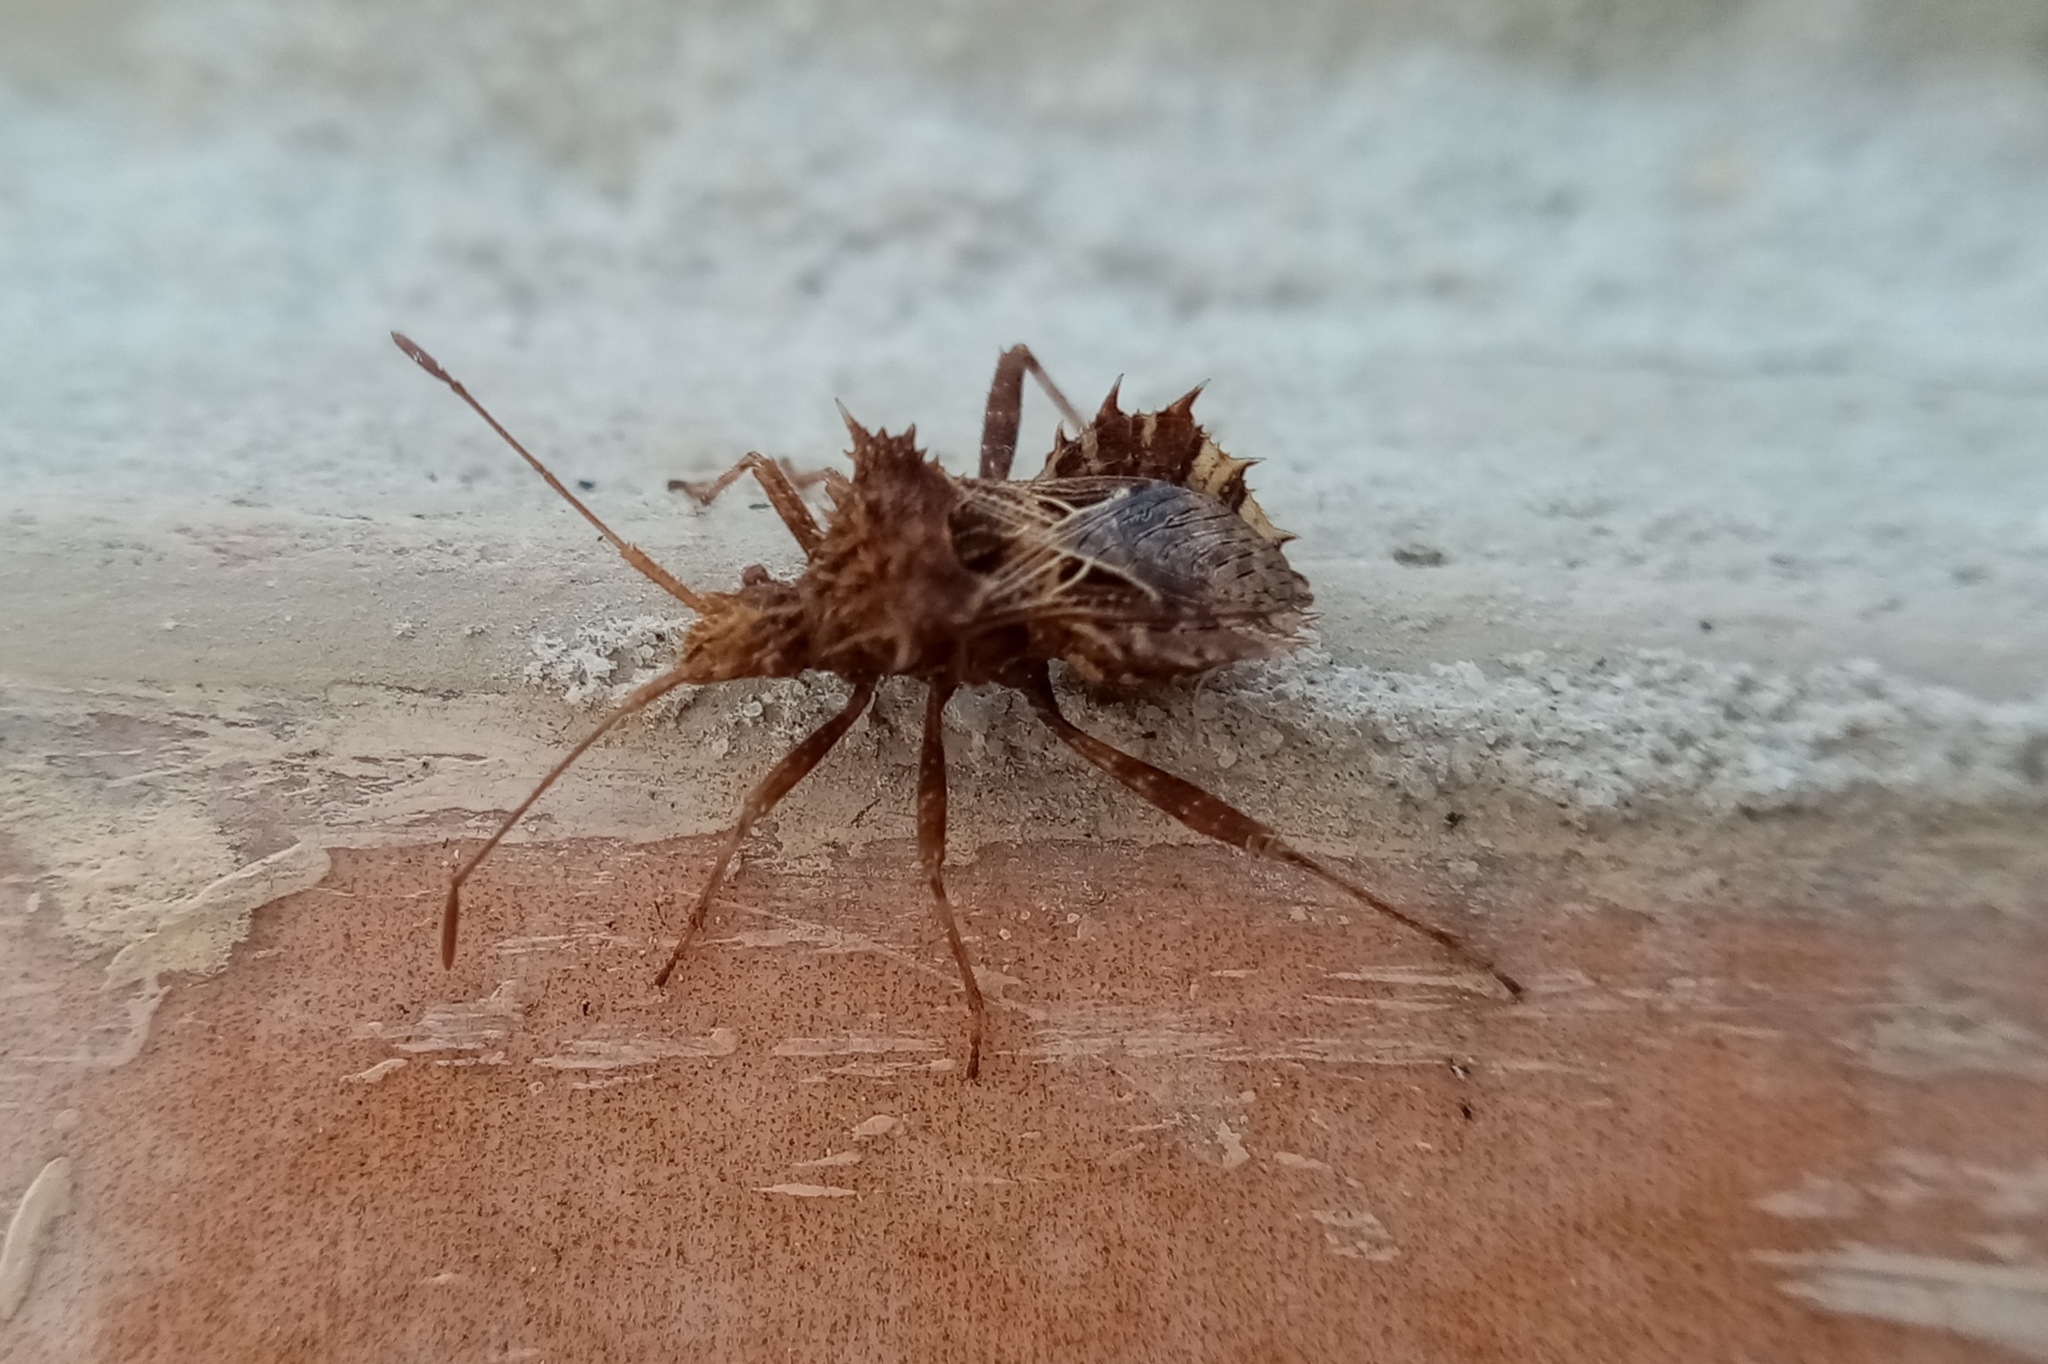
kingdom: Animalia
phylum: Arthropoda
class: Insecta
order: Hemiptera
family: Coreidae
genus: Vilga
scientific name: Vilga westwoodi
